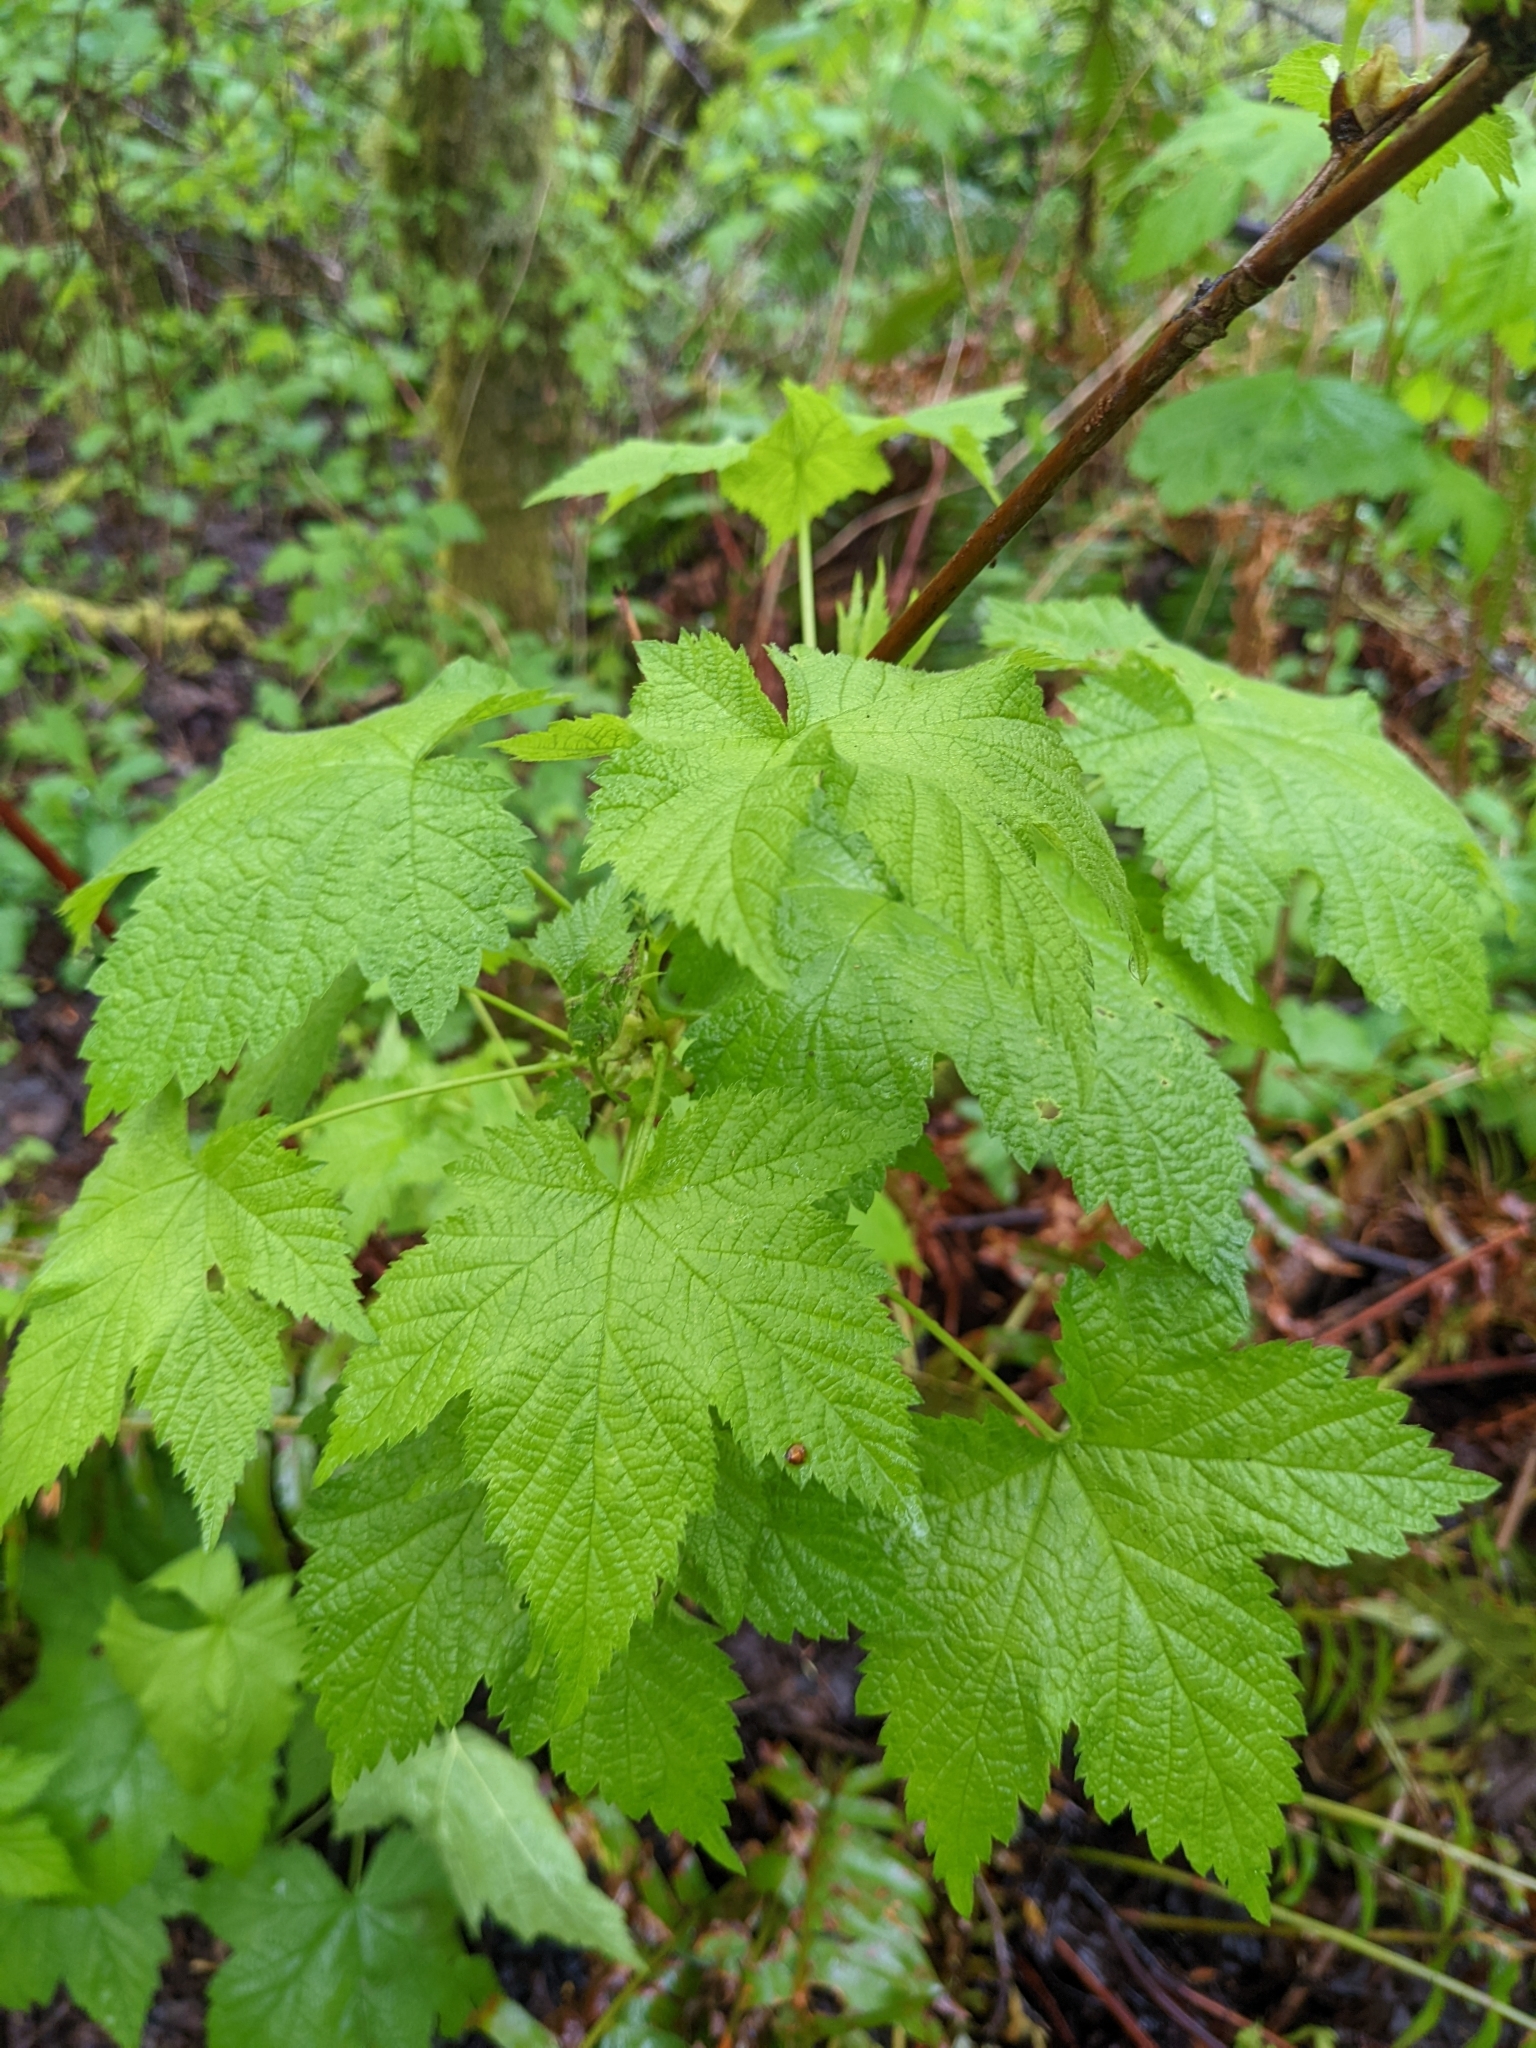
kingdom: Plantae
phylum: Tracheophyta
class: Magnoliopsida
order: Rosales
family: Rosaceae
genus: Rubus
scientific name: Rubus parviflorus
